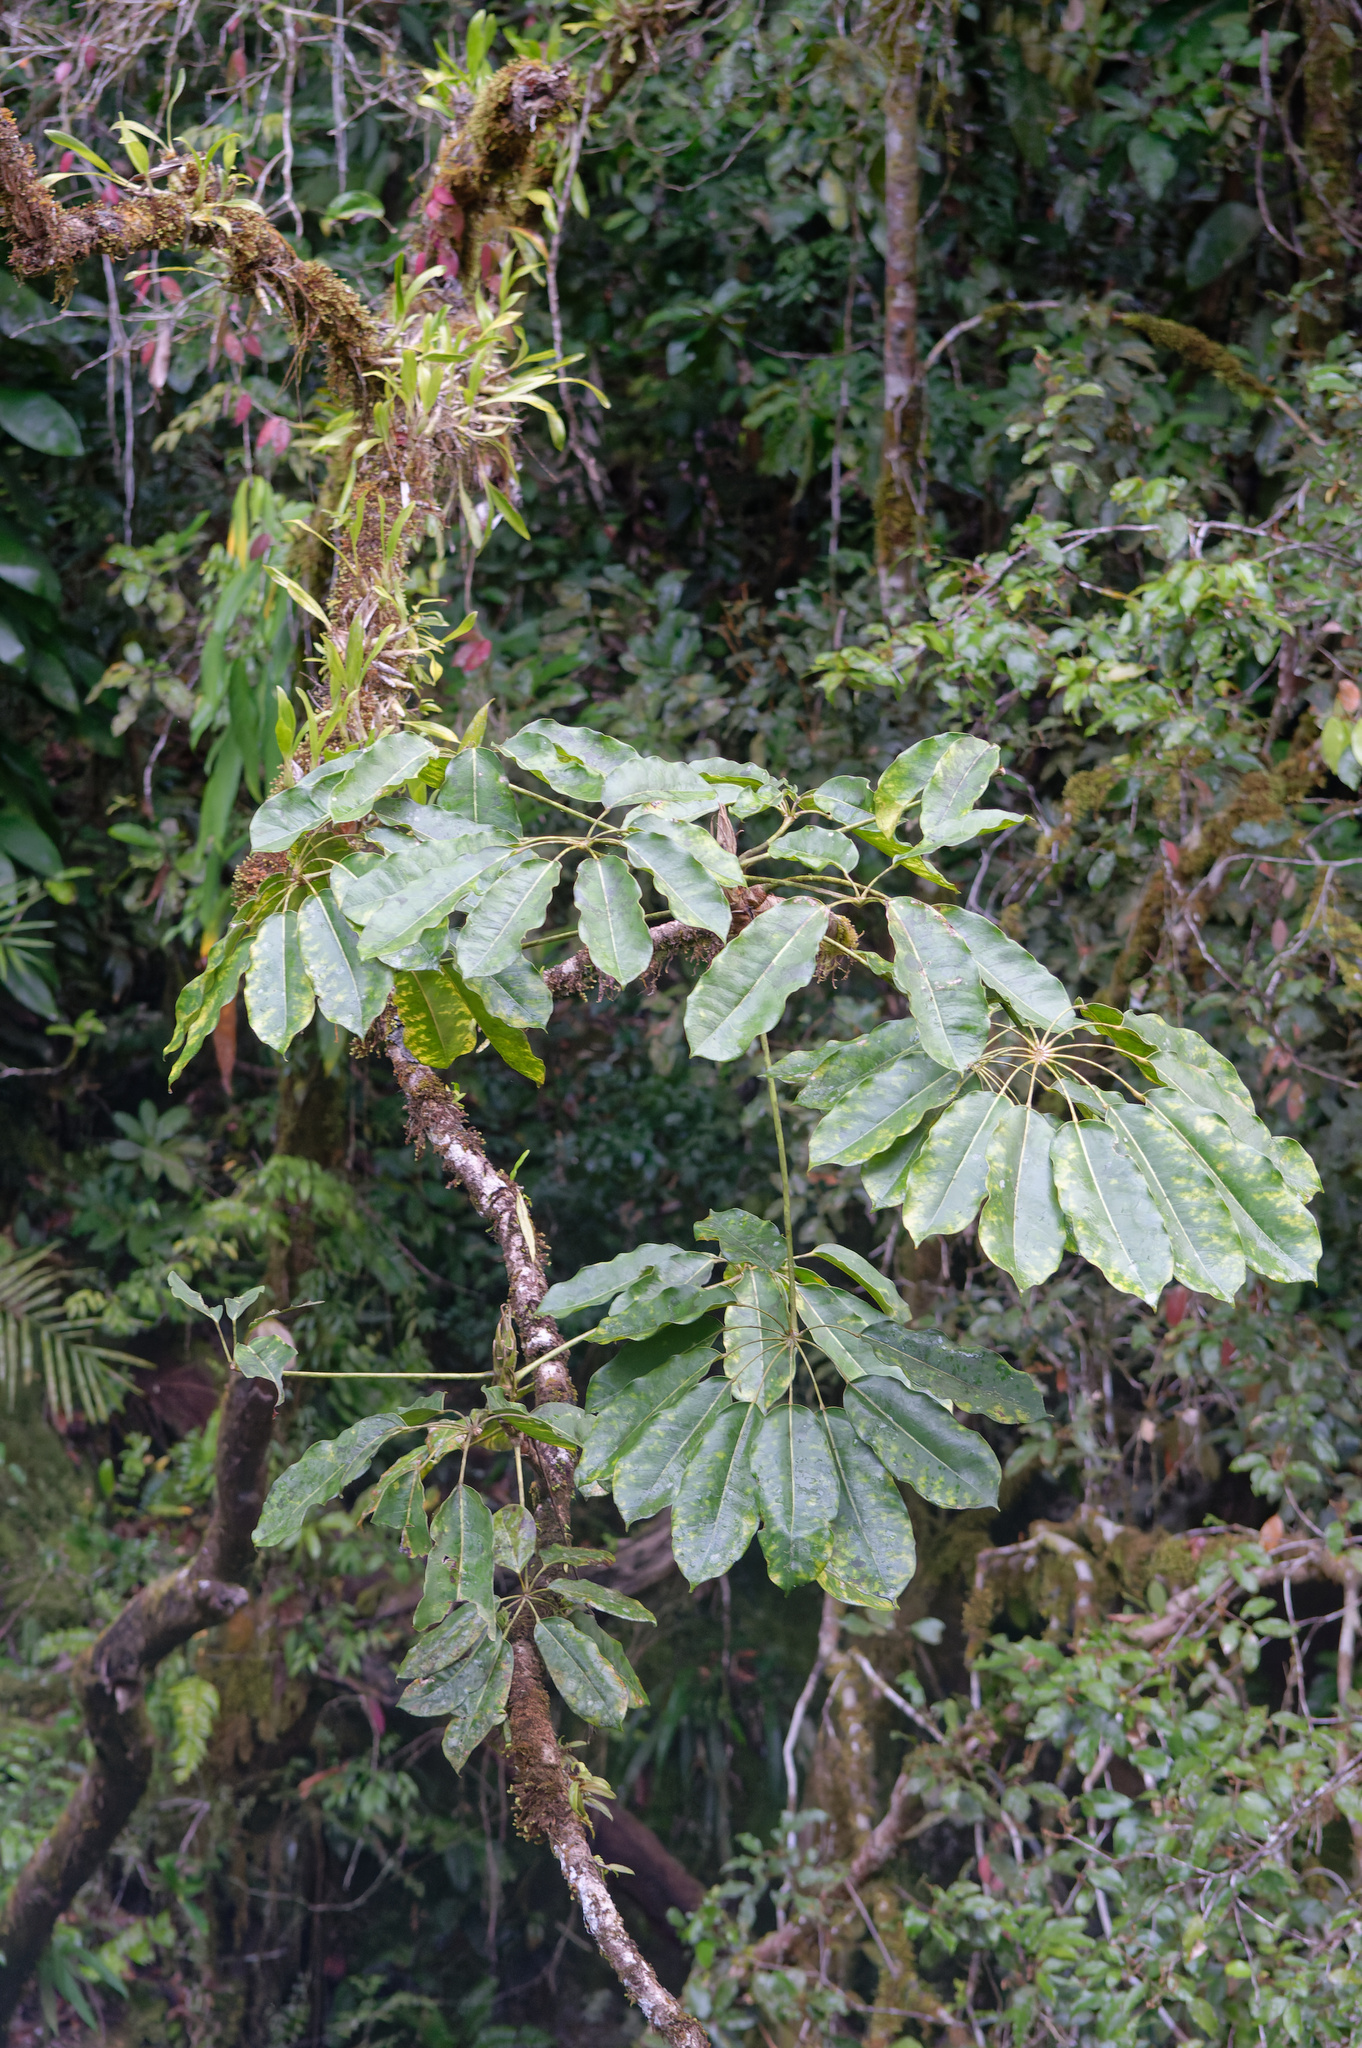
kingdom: Plantae
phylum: Tracheophyta
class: Magnoliopsida
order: Apiales
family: Araliaceae
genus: Heptapleurum
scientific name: Heptapleurum actinophyllum
